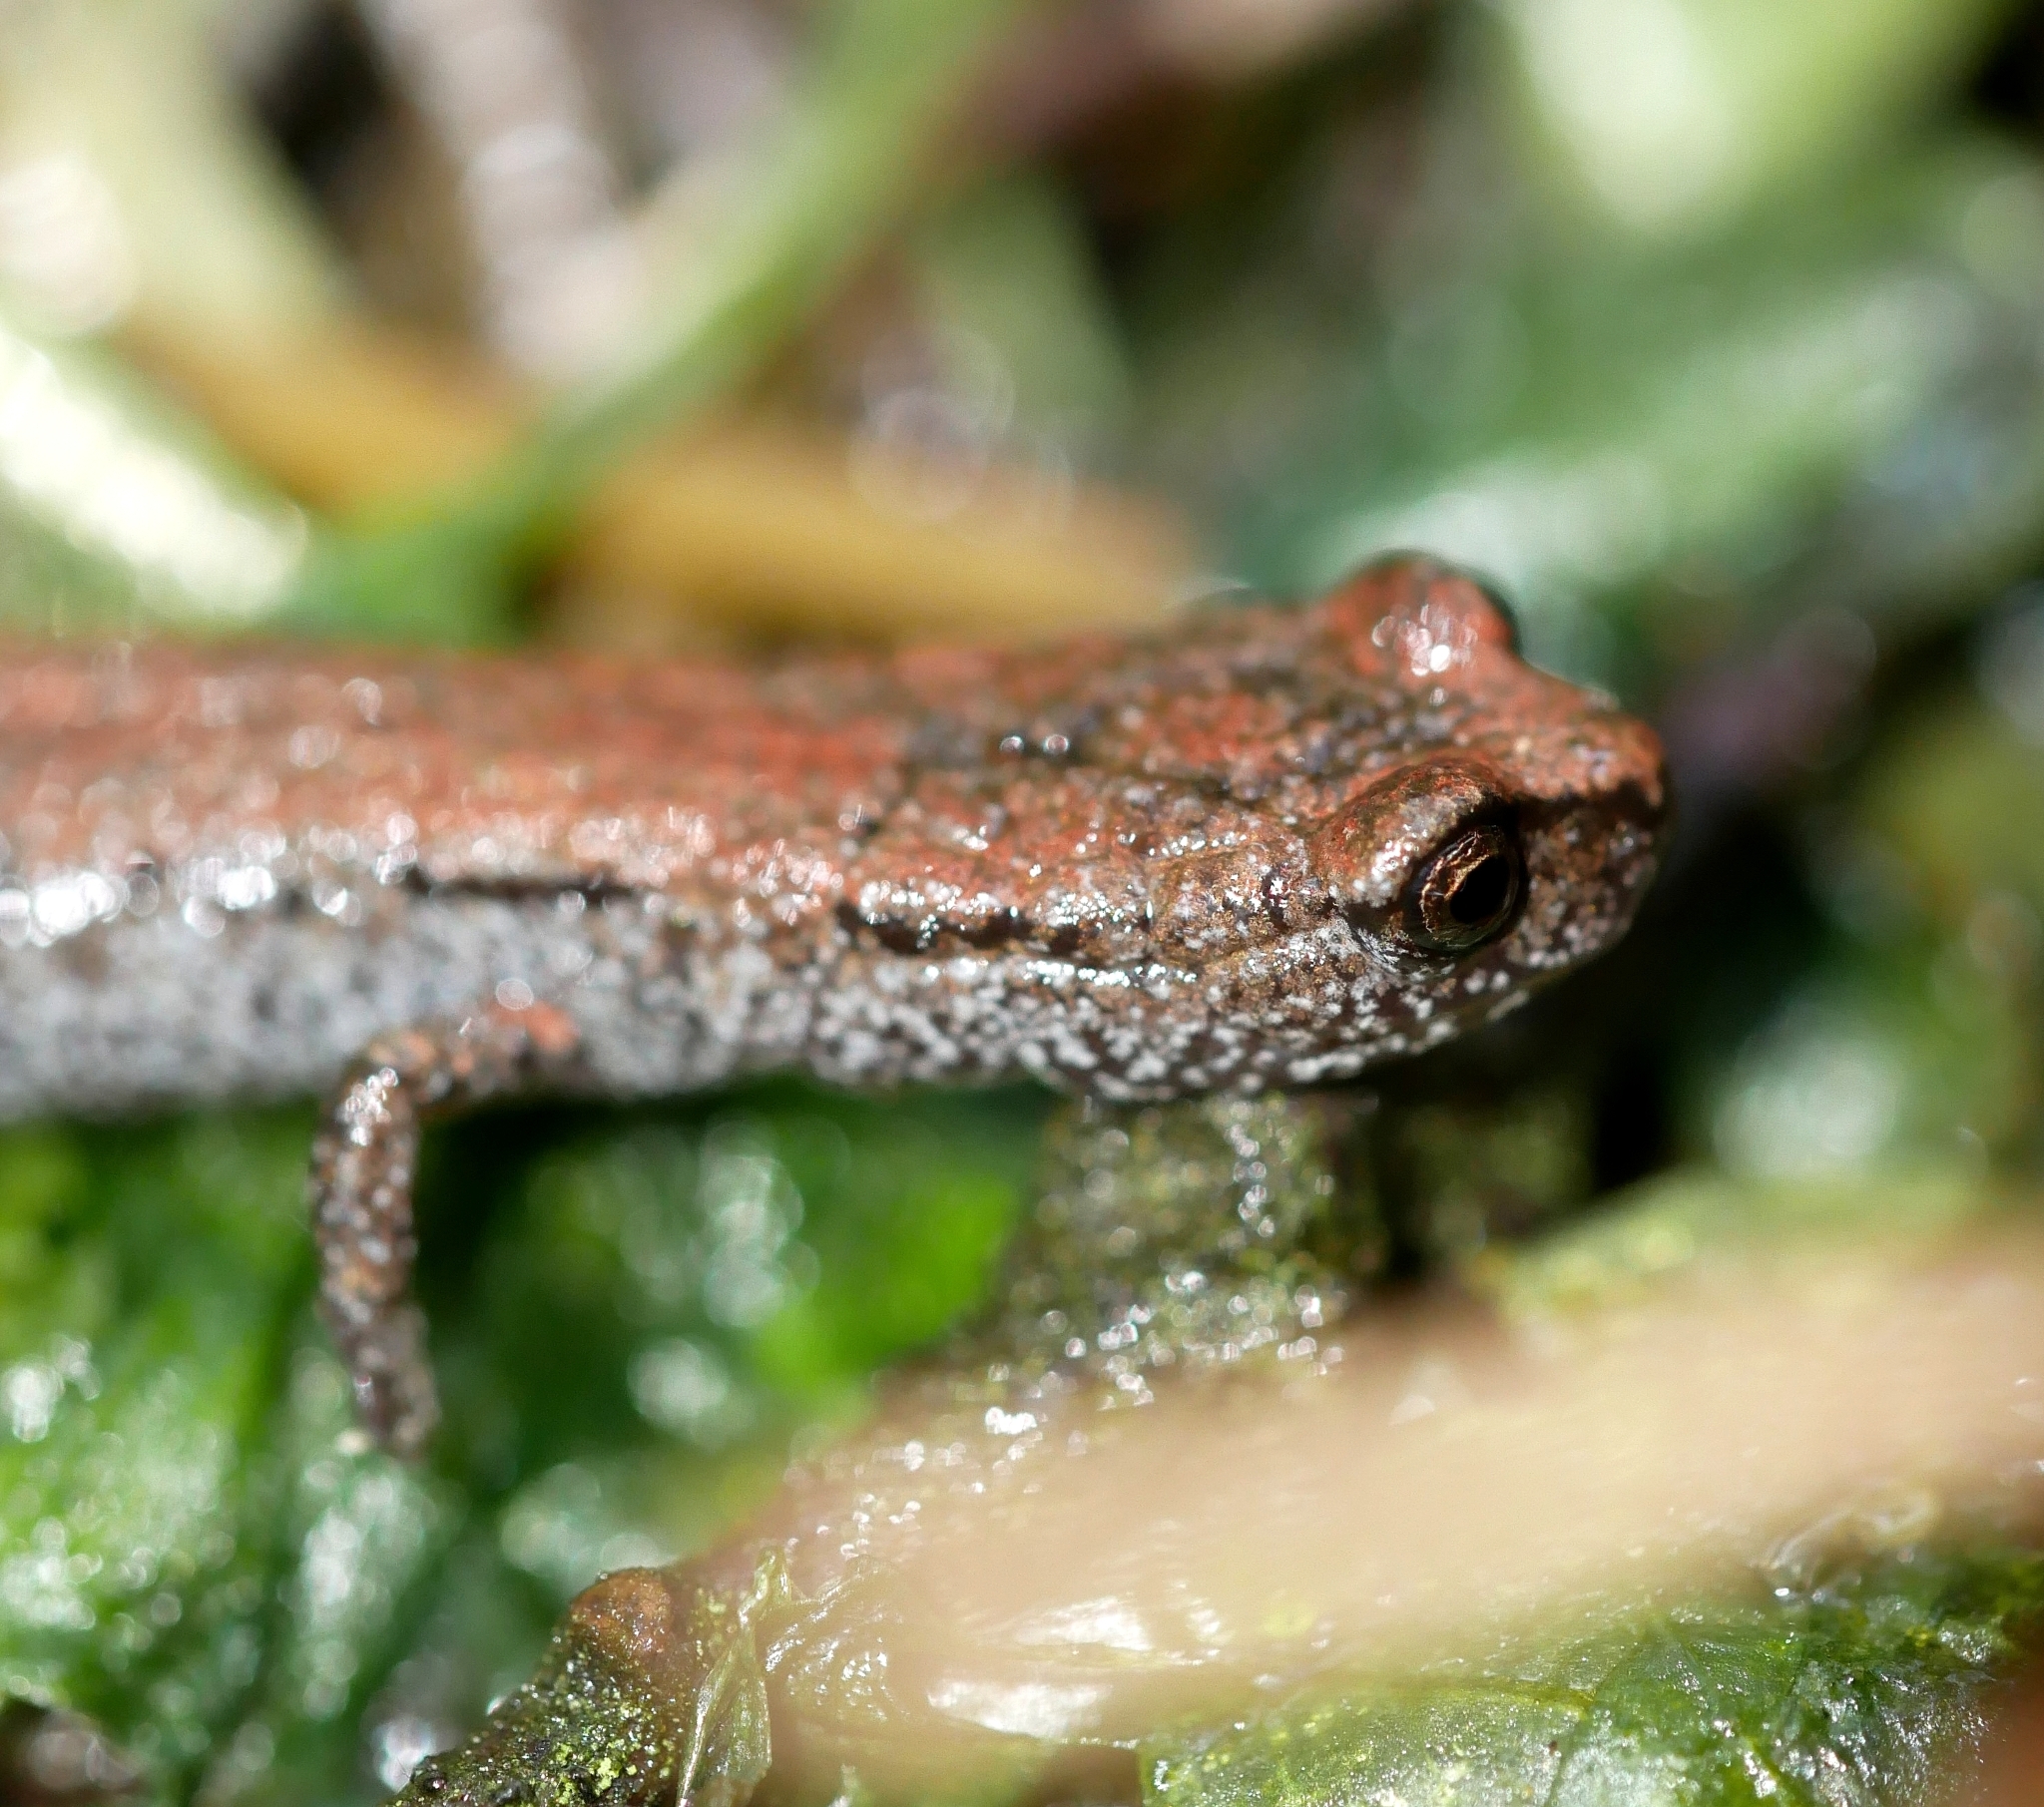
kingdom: Animalia
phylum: Chordata
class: Amphibia
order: Caudata
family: Plethodontidae
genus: Batrachoseps
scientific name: Batrachoseps attenuatus
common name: California slender salamander
